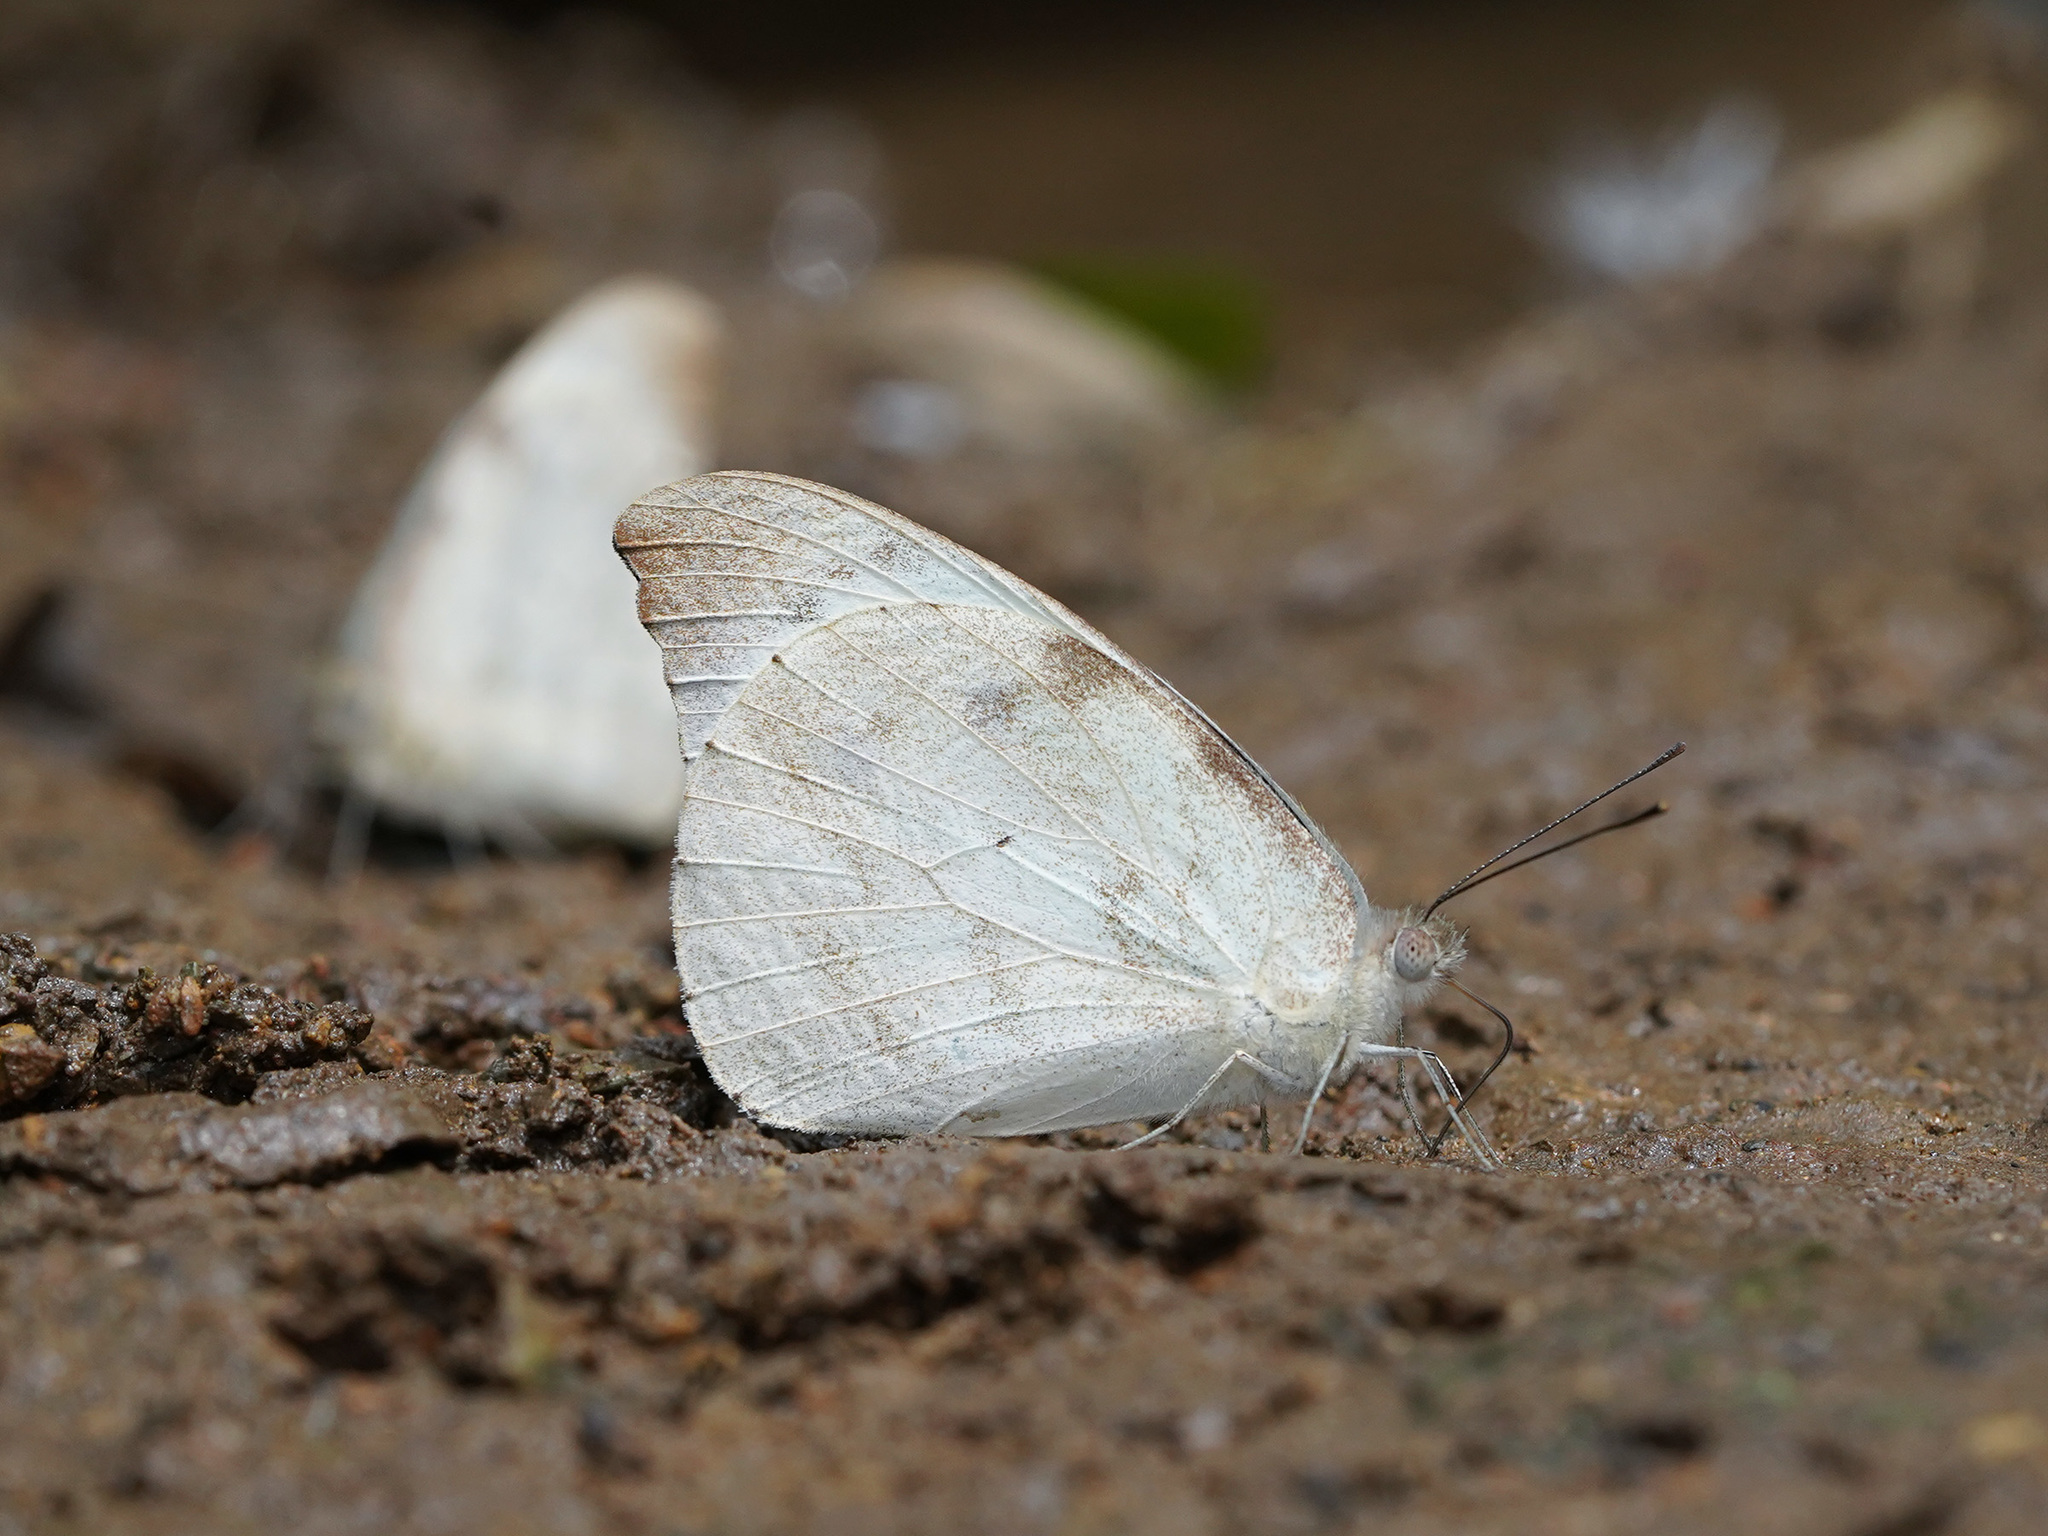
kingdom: Animalia
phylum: Arthropoda
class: Insecta
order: Lepidoptera
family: Pieridae
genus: Appias
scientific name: Appias lalage
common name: Spot puffin
